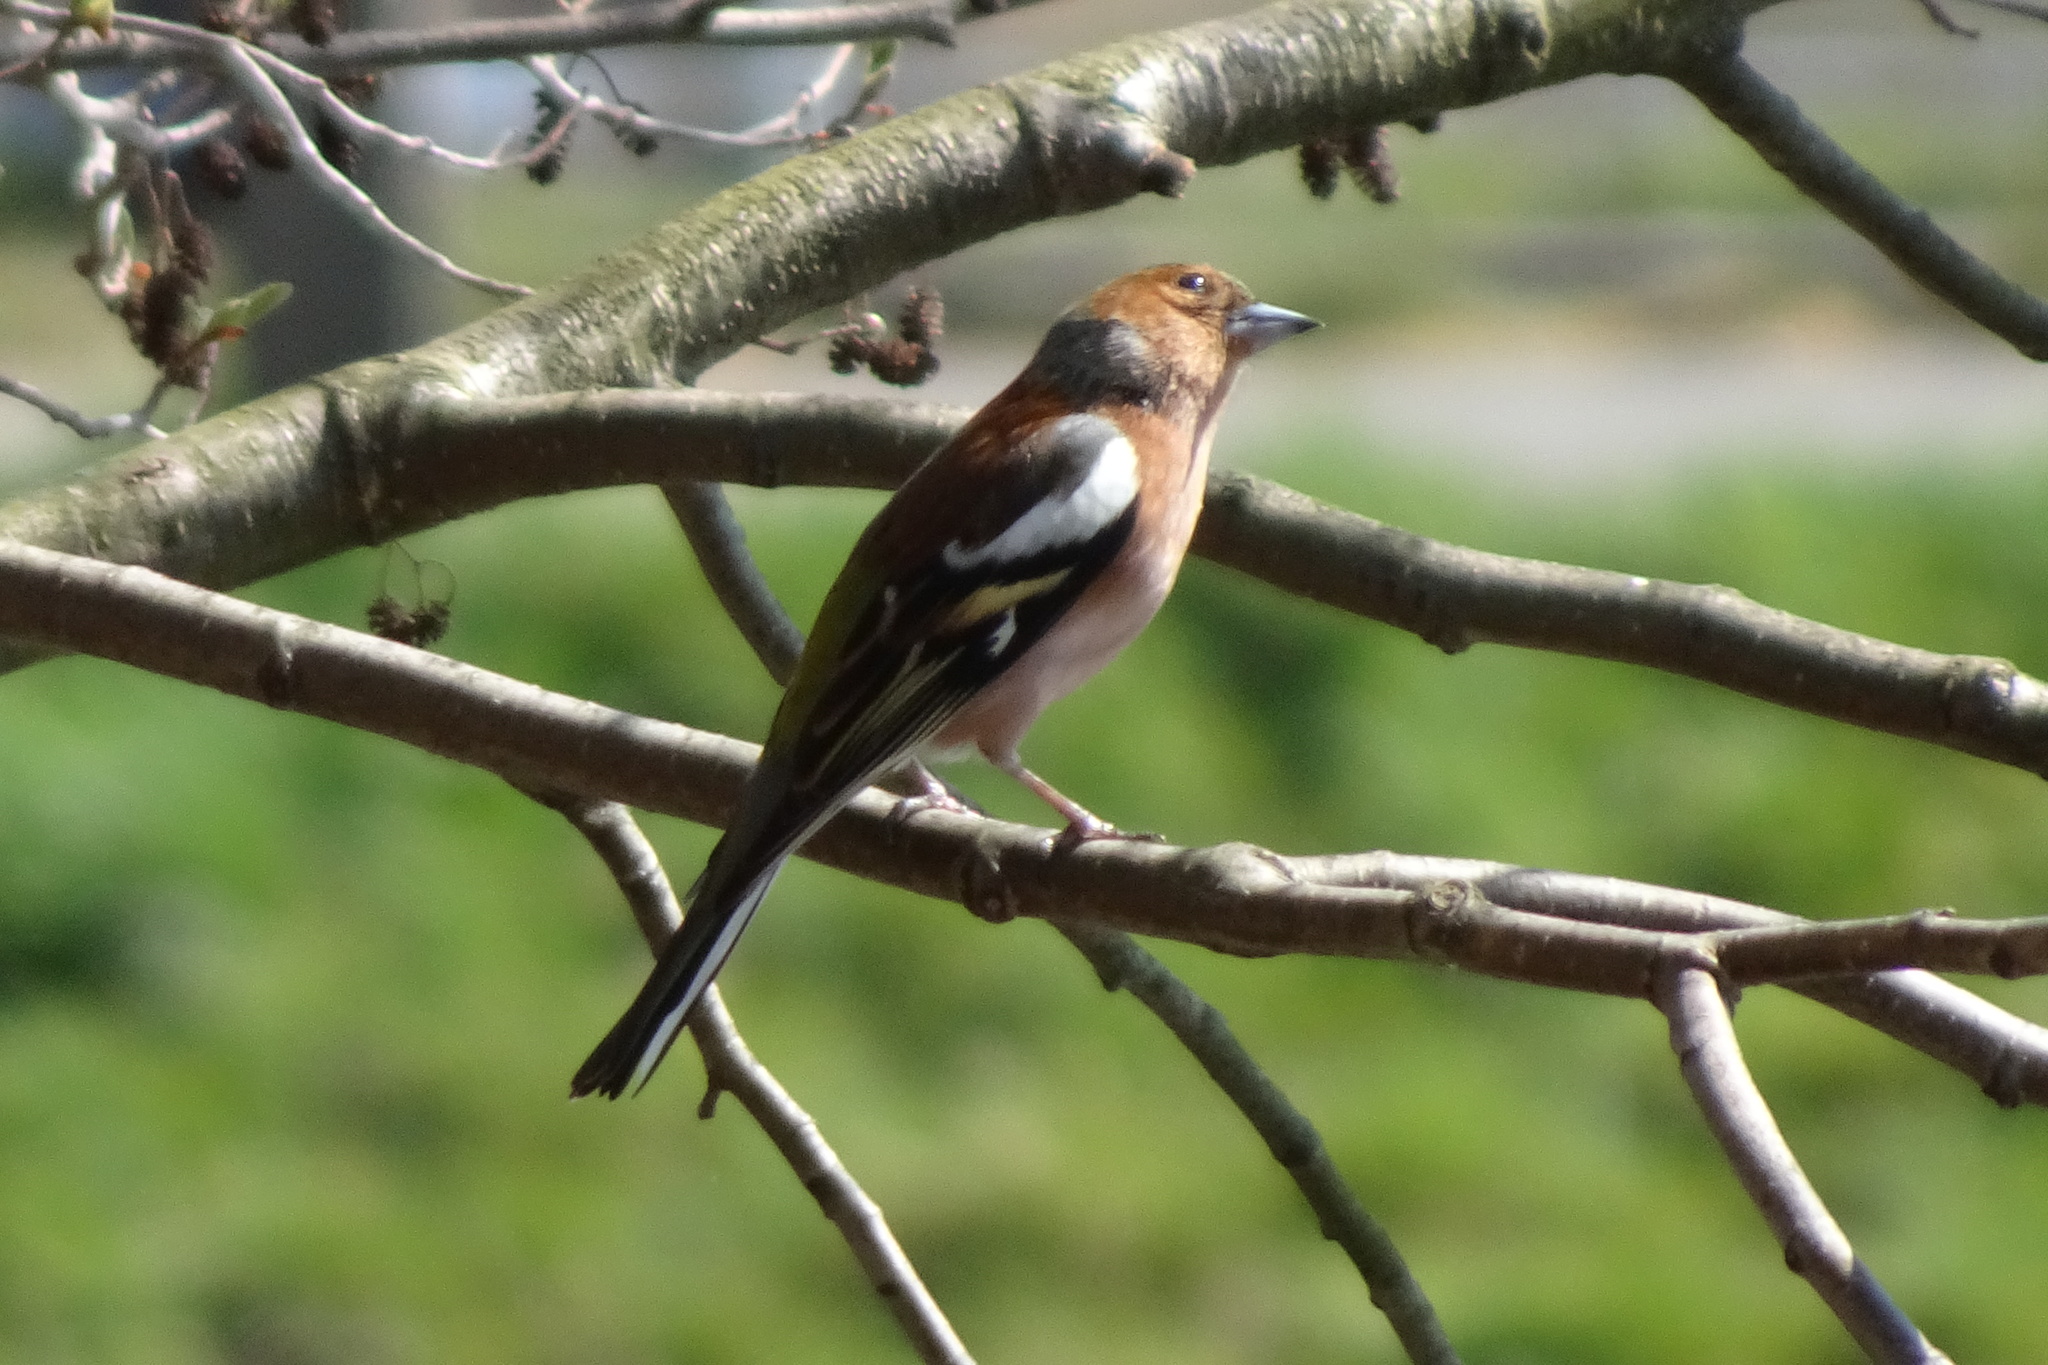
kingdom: Animalia
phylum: Chordata
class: Aves
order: Passeriformes
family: Fringillidae
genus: Fringilla
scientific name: Fringilla coelebs
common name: Common chaffinch
